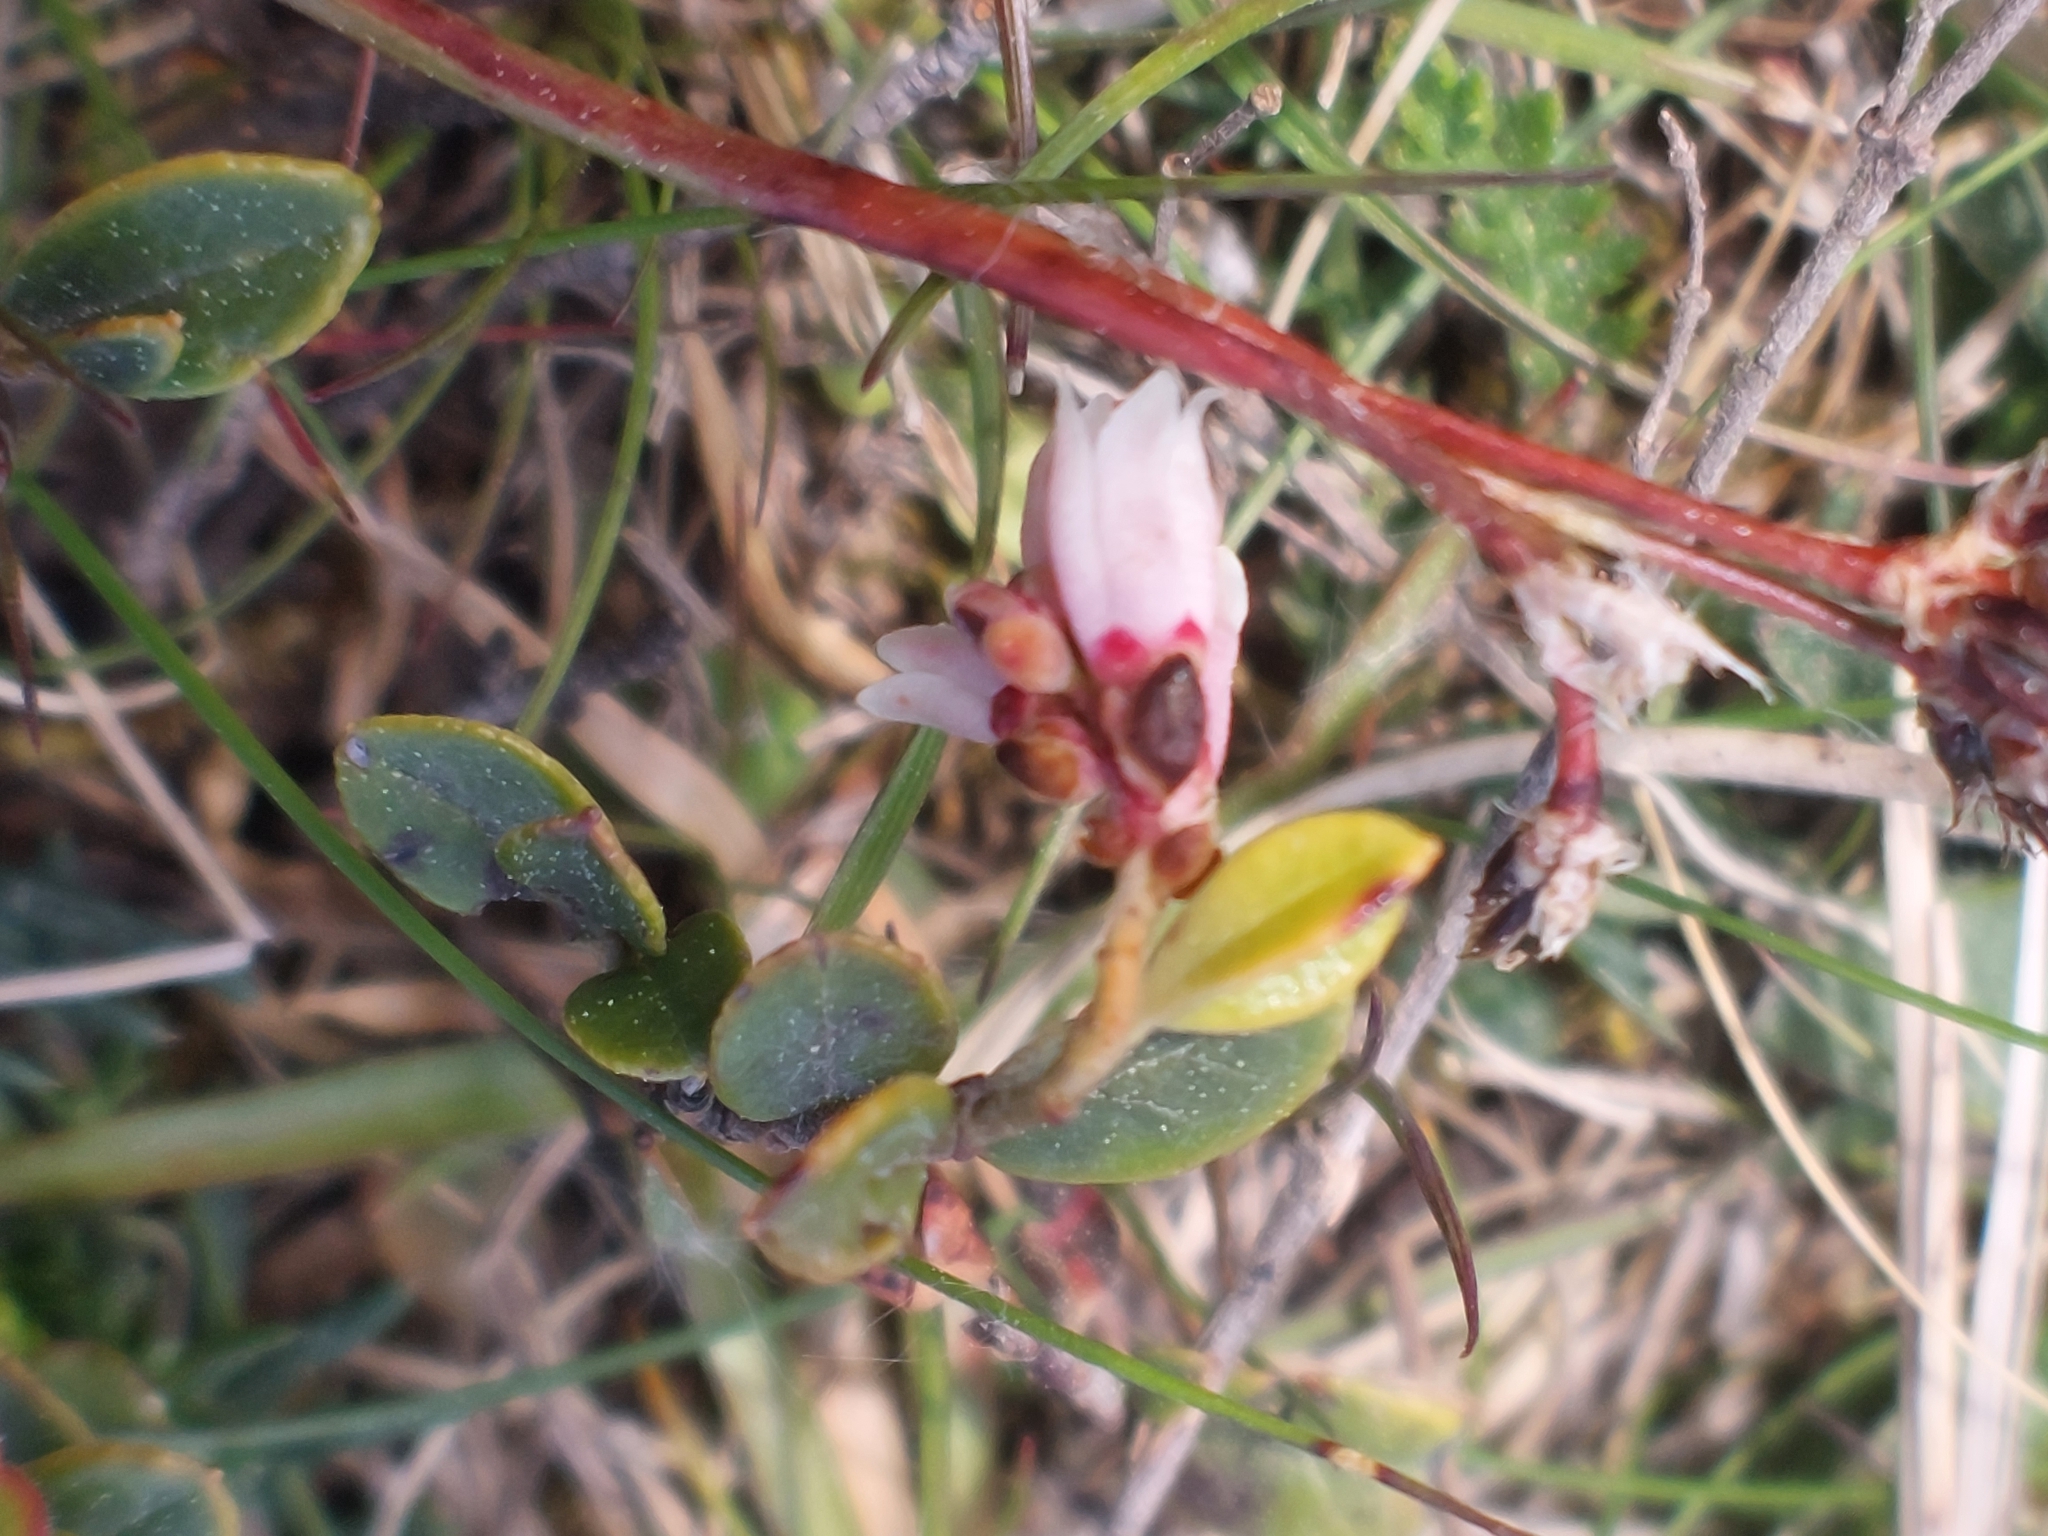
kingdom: Plantae
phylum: Tracheophyta
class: Magnoliopsida
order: Ericales
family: Ericaceae
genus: Vaccinium
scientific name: Vaccinium vitis-idaea
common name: Cowberry
